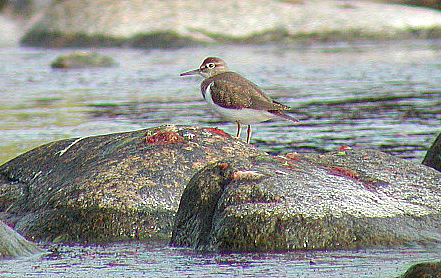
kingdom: Animalia
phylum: Chordata
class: Aves
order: Charadriiformes
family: Scolopacidae
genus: Actitis
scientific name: Actitis hypoleucos
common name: Common sandpiper
